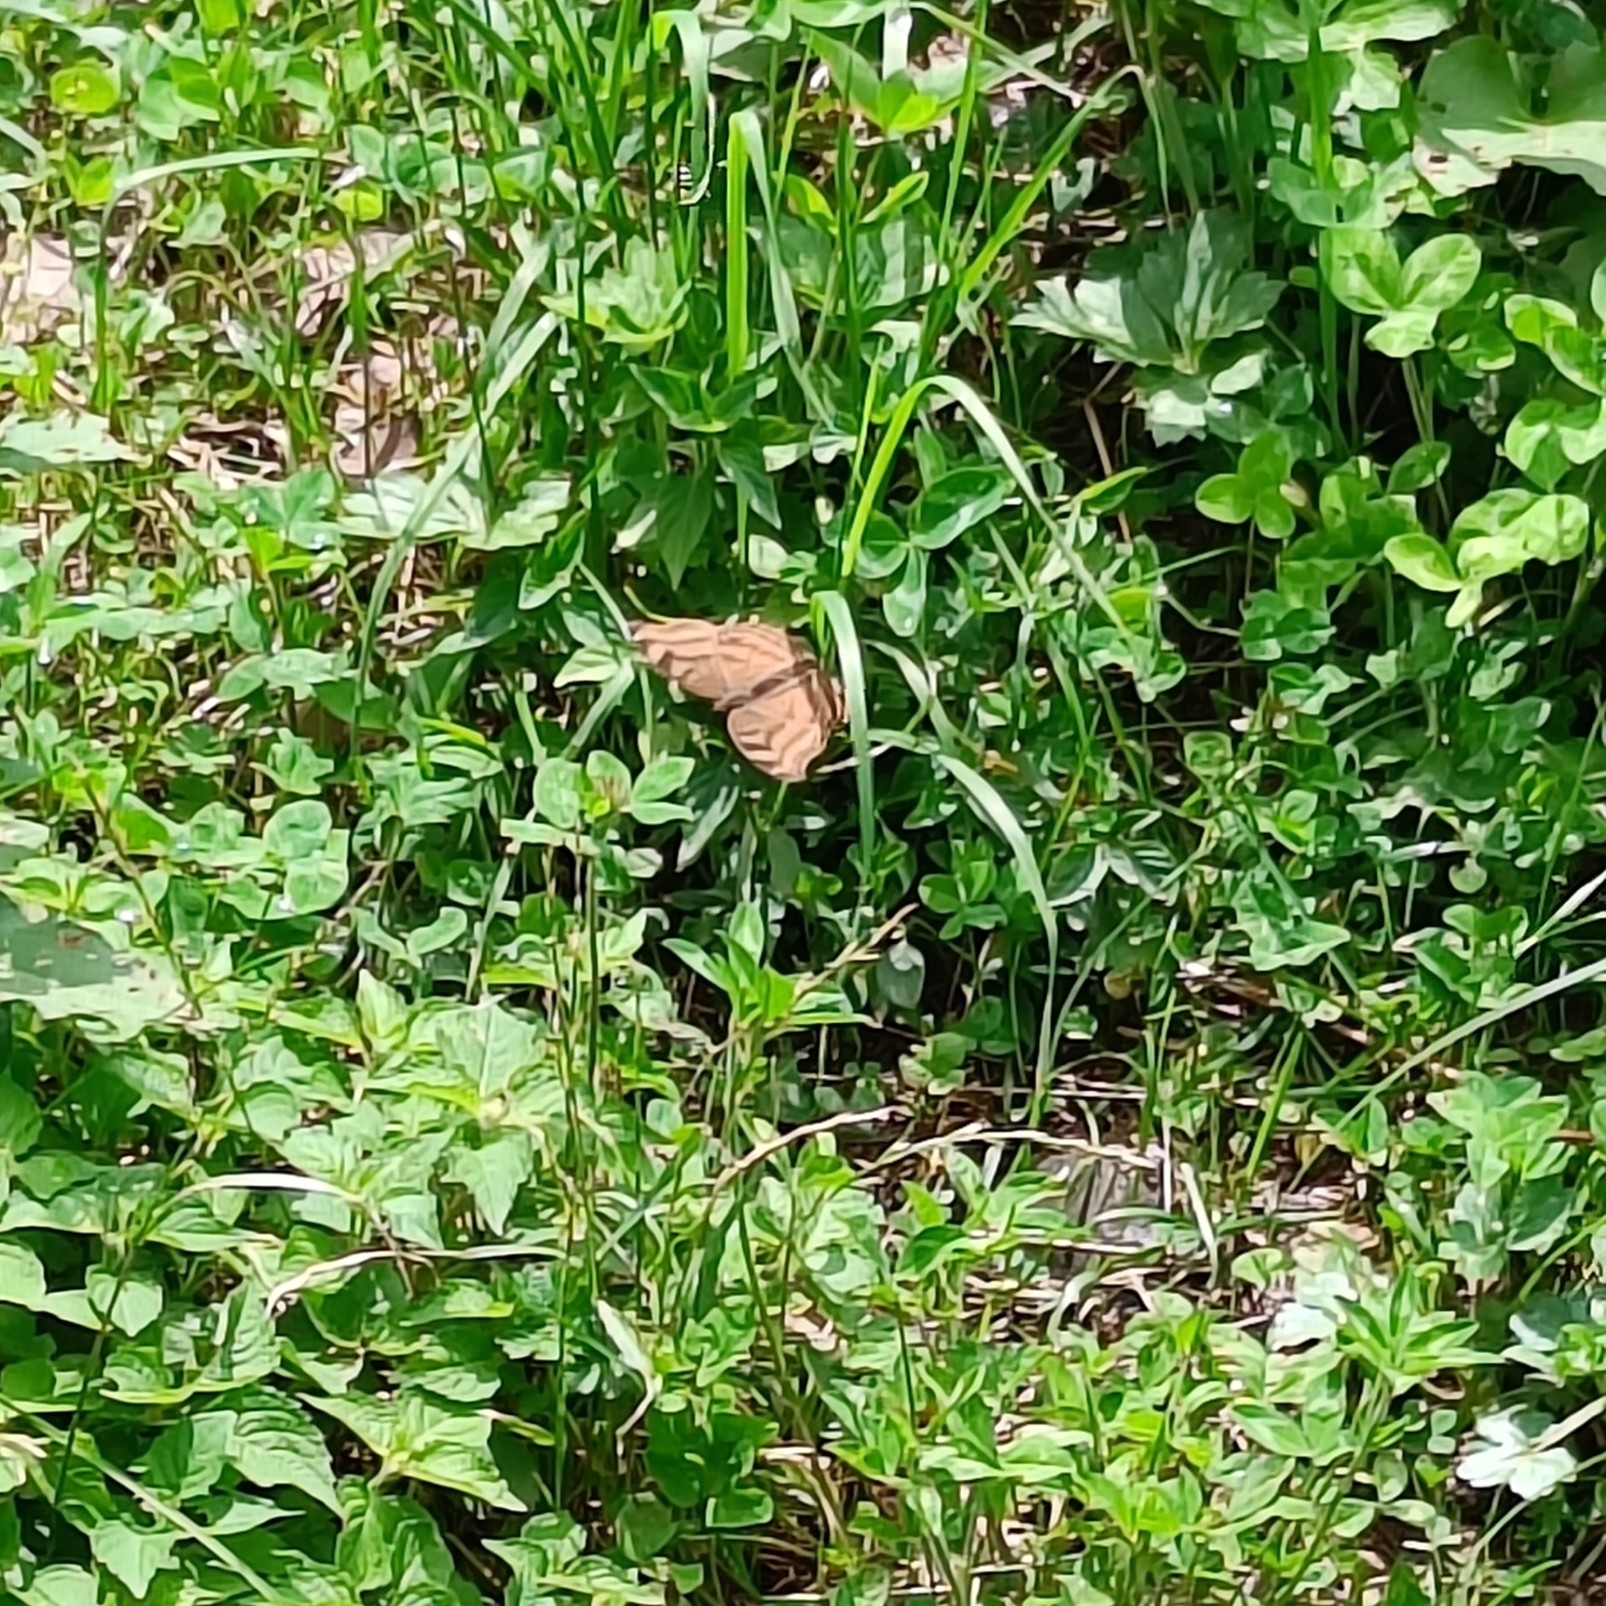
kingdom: Animalia
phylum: Arthropoda
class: Insecta
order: Lepidoptera
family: Nymphalidae
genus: Junonia
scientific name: Junonia iphita
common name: Chocolate pansy
